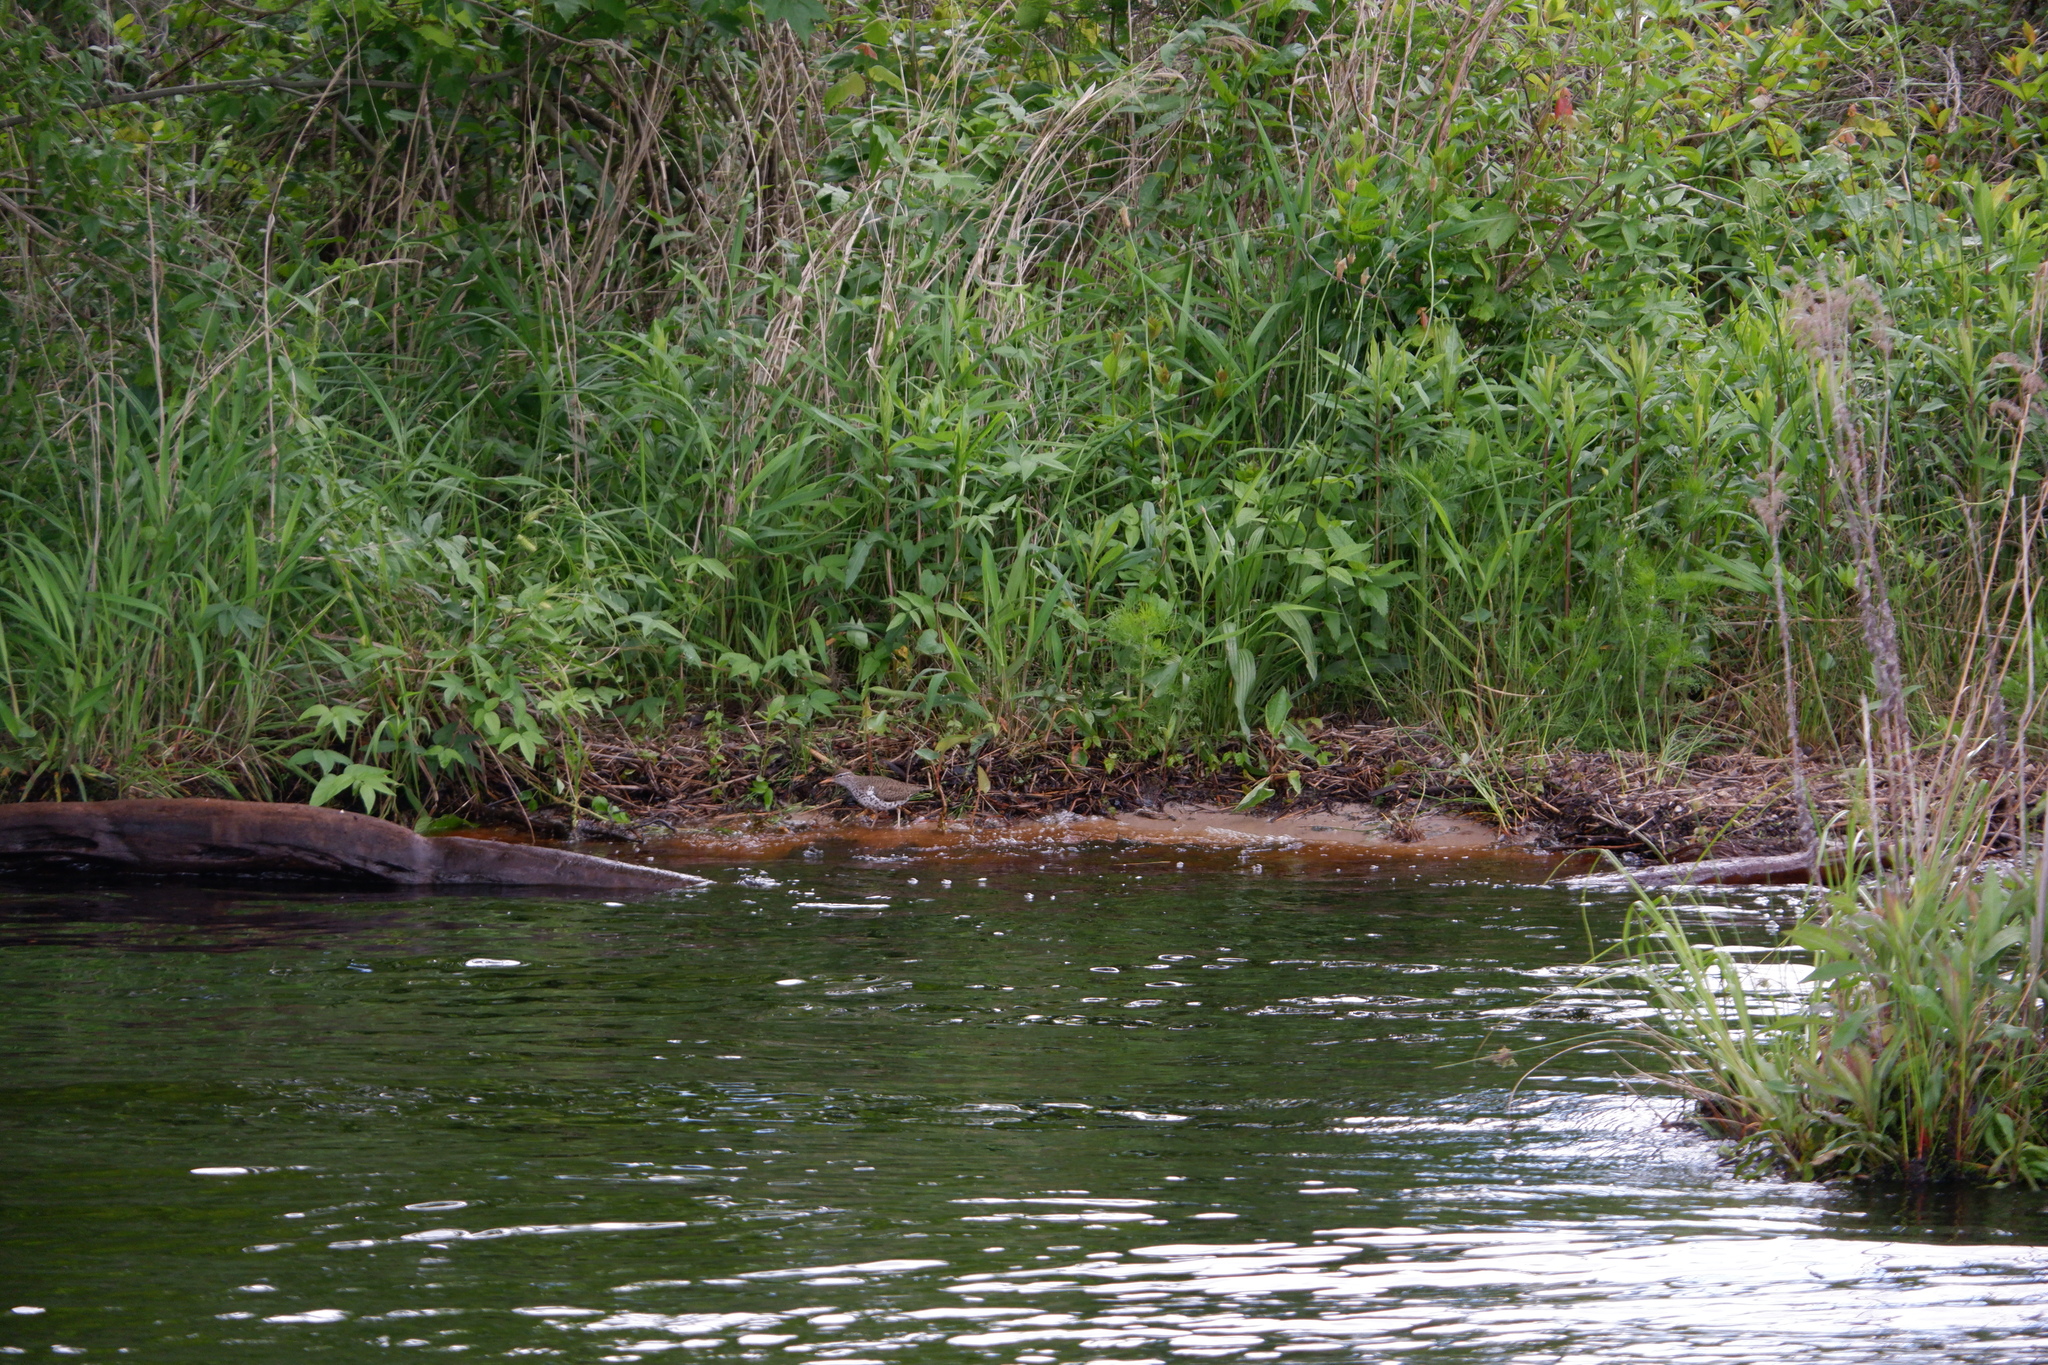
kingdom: Animalia
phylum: Chordata
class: Aves
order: Charadriiformes
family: Scolopacidae
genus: Actitis
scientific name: Actitis macularius
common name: Spotted sandpiper
